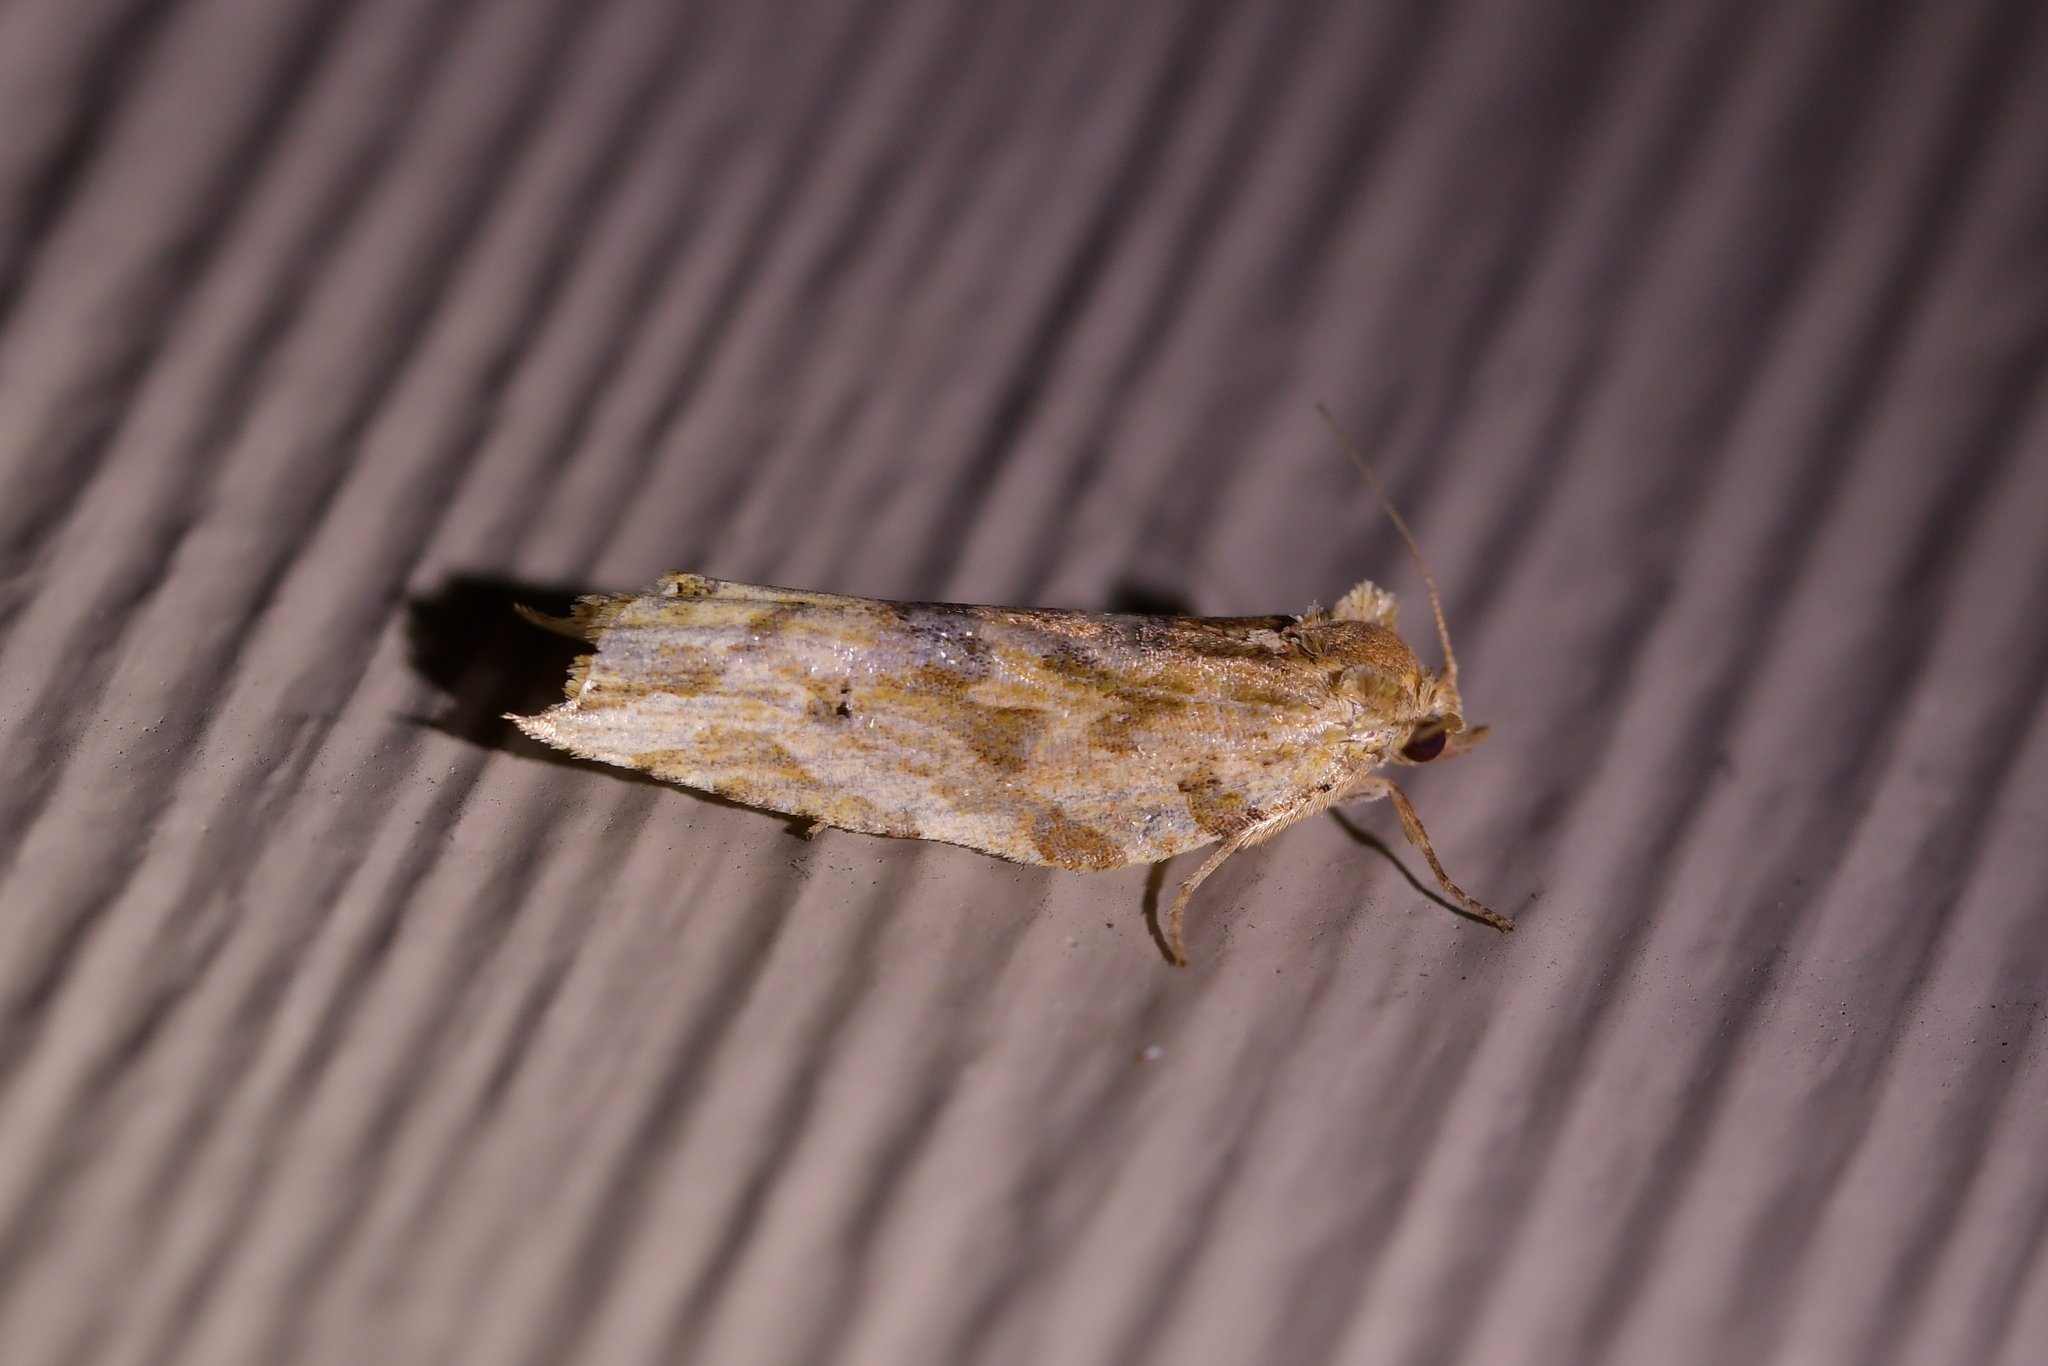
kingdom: Animalia
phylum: Arthropoda
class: Insecta
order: Lepidoptera
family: Tortricidae
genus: Epalxiphora
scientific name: Epalxiphora axenana
